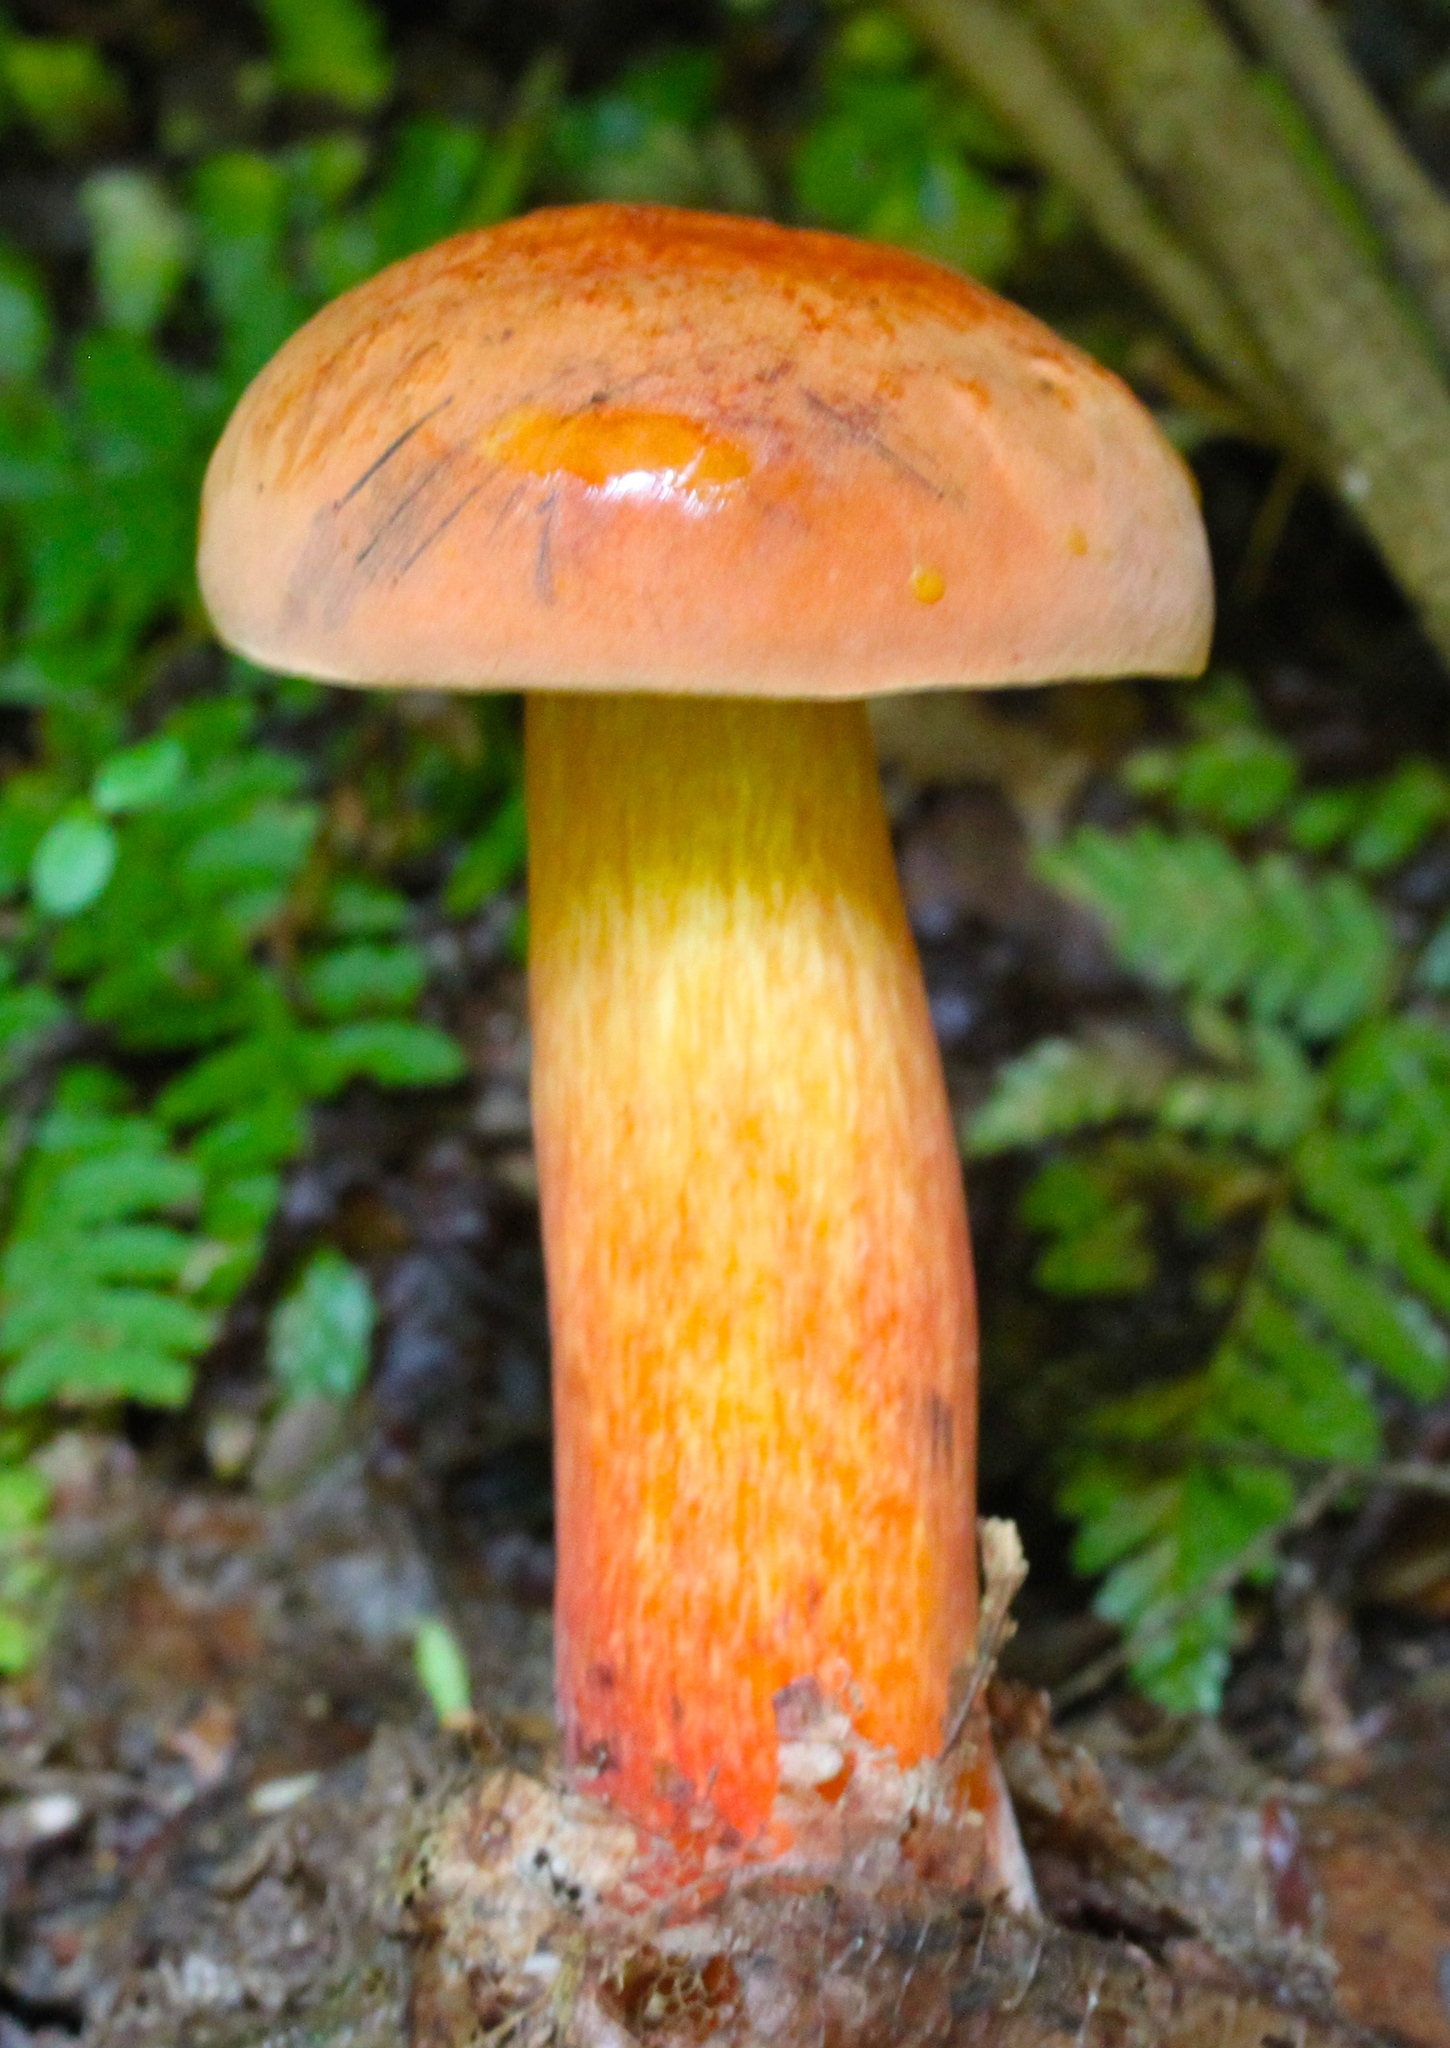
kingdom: Fungi
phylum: Basidiomycota
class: Agaricomycetes
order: Boletales
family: Boletaceae
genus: Boletus
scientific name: Boletus subvelutipes
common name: Red-mouth bolete
